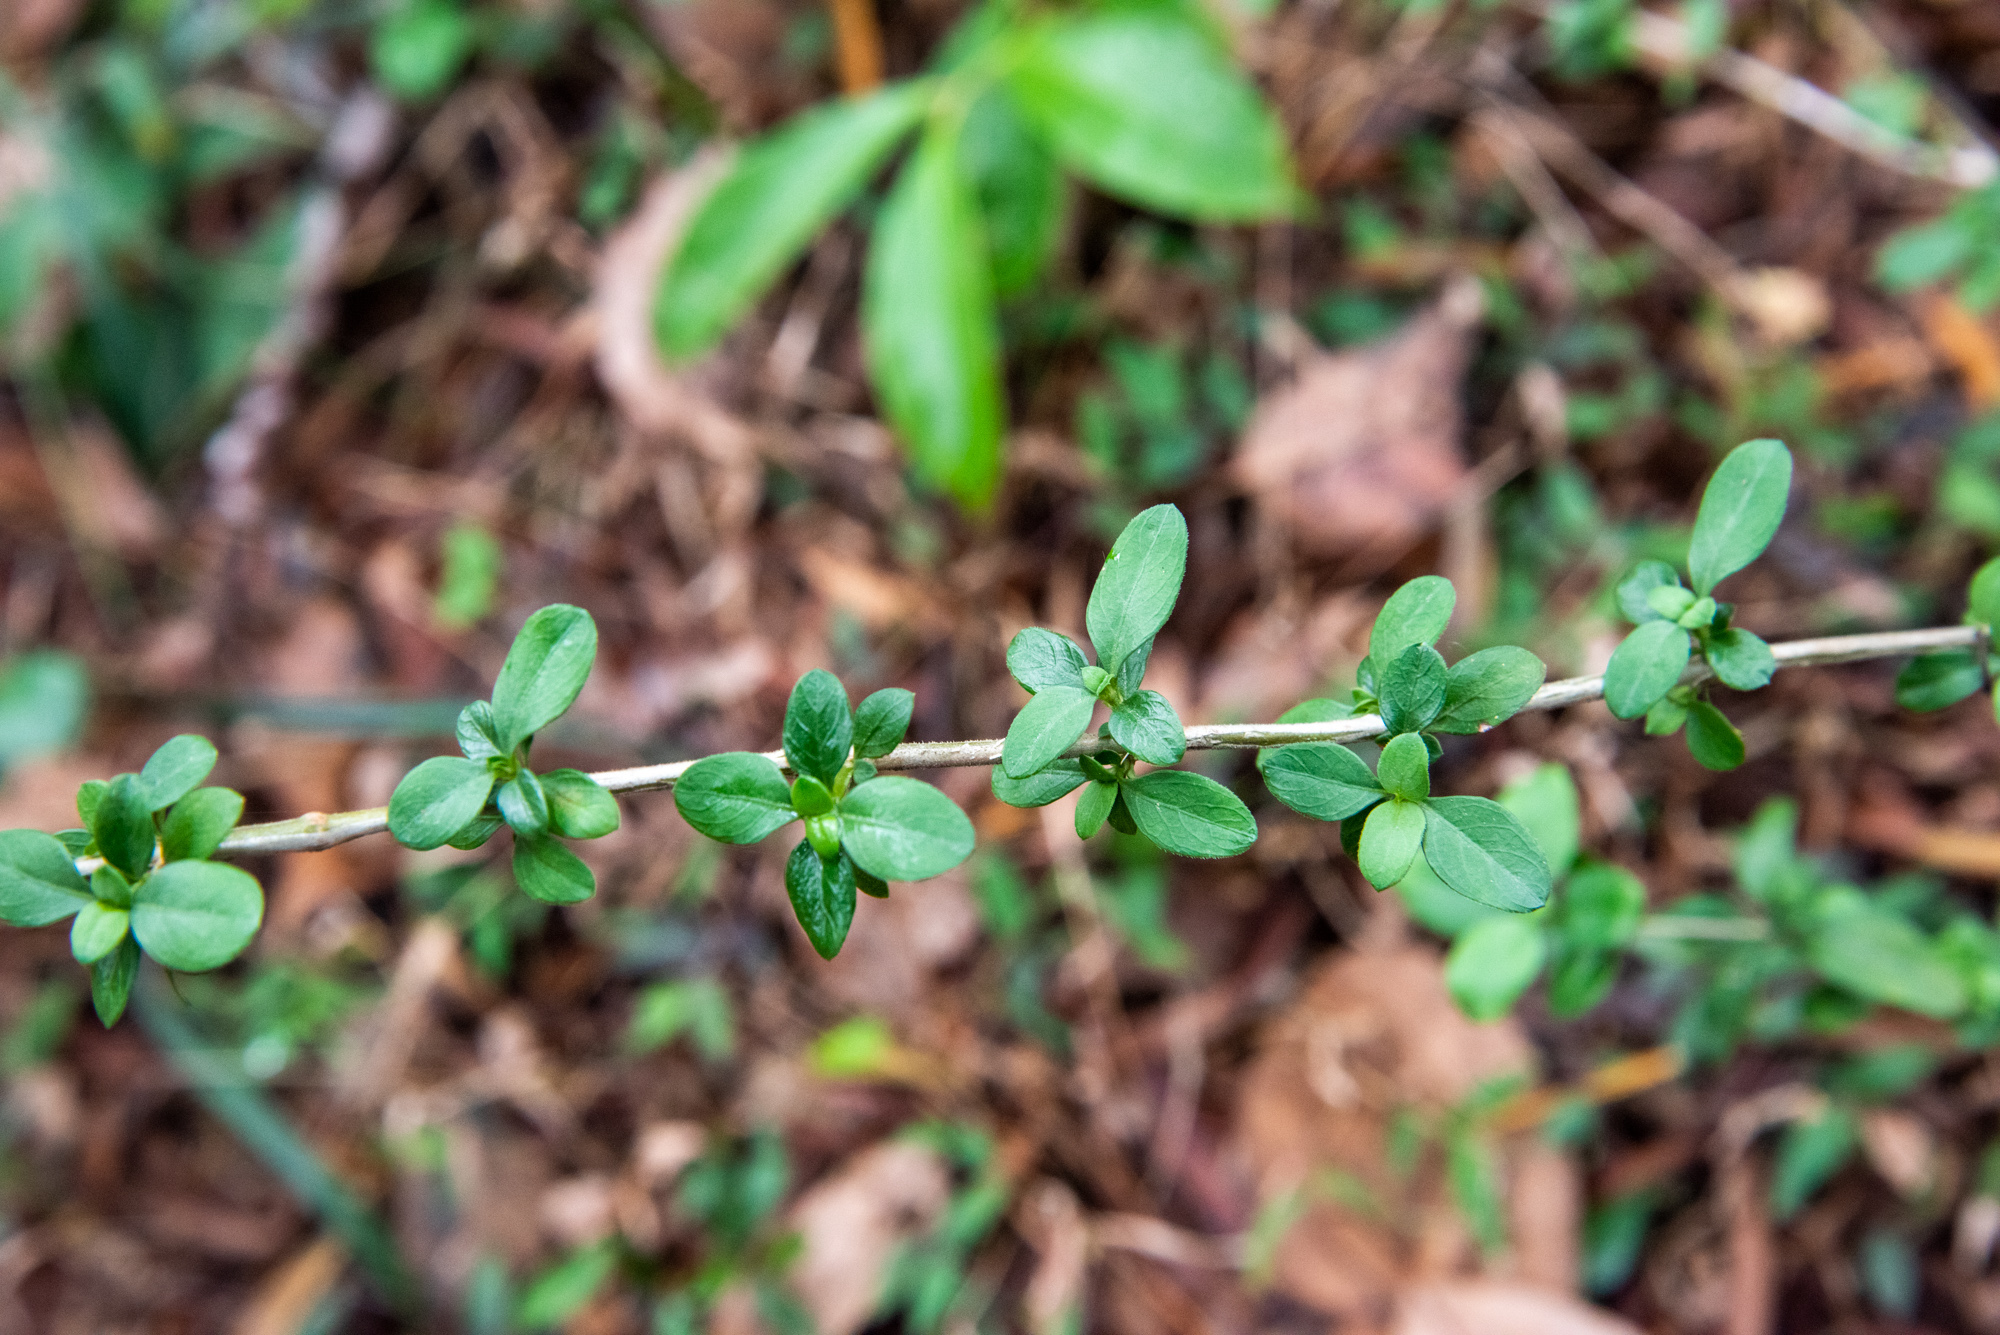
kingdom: Plantae
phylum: Tracheophyta
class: Magnoliopsida
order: Gentianales
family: Rubiaceae
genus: Buchozia
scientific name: Buchozia japonica
